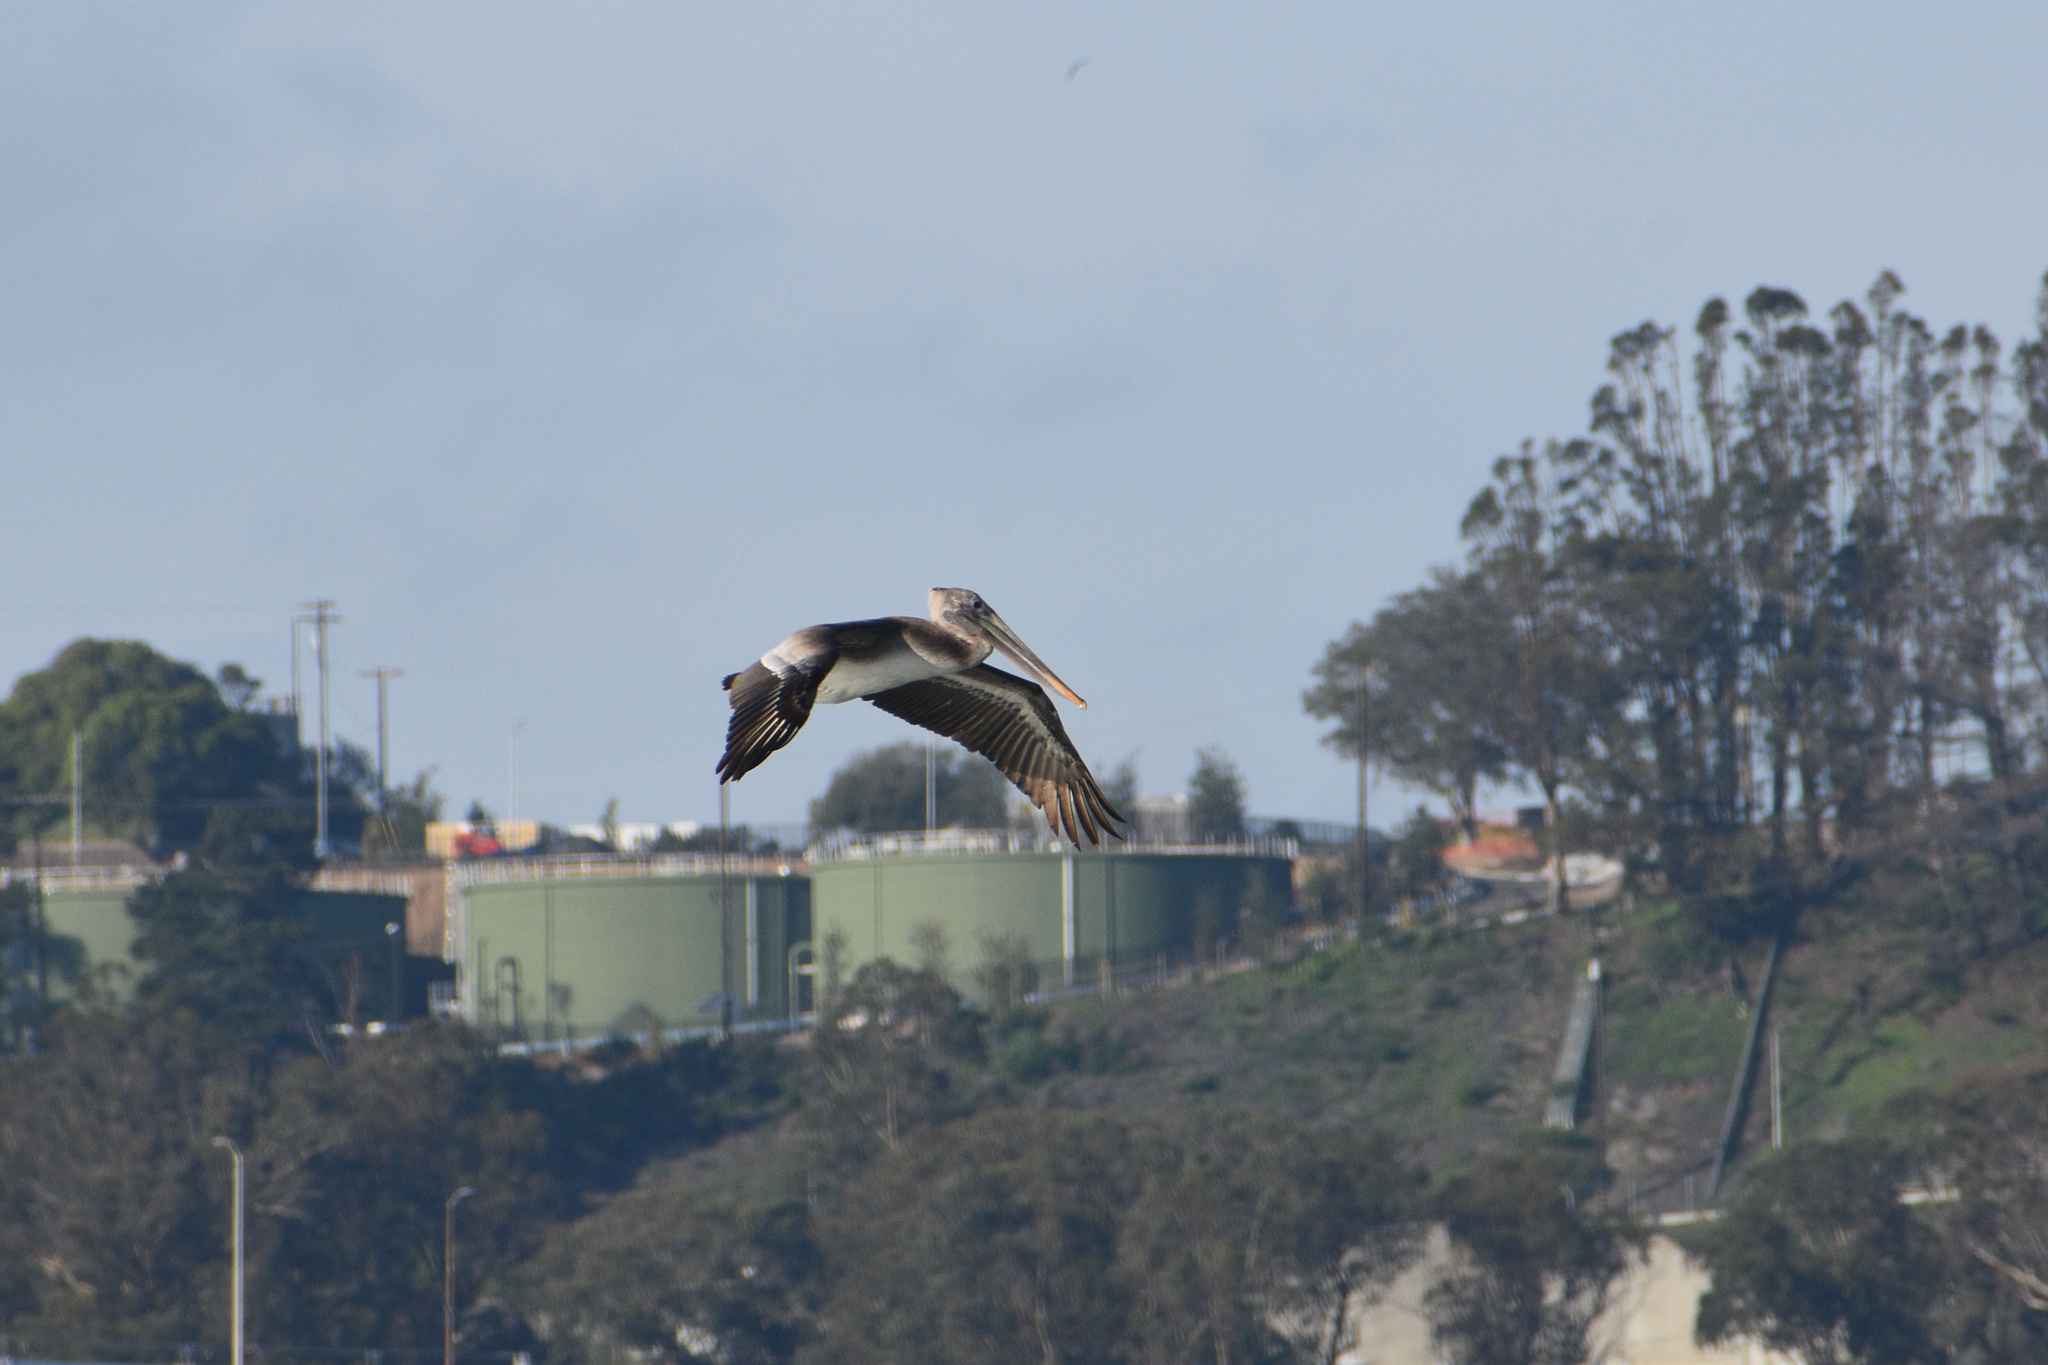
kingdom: Animalia
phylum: Chordata
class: Aves
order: Pelecaniformes
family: Pelecanidae
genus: Pelecanus
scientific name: Pelecanus occidentalis
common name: Brown pelican
